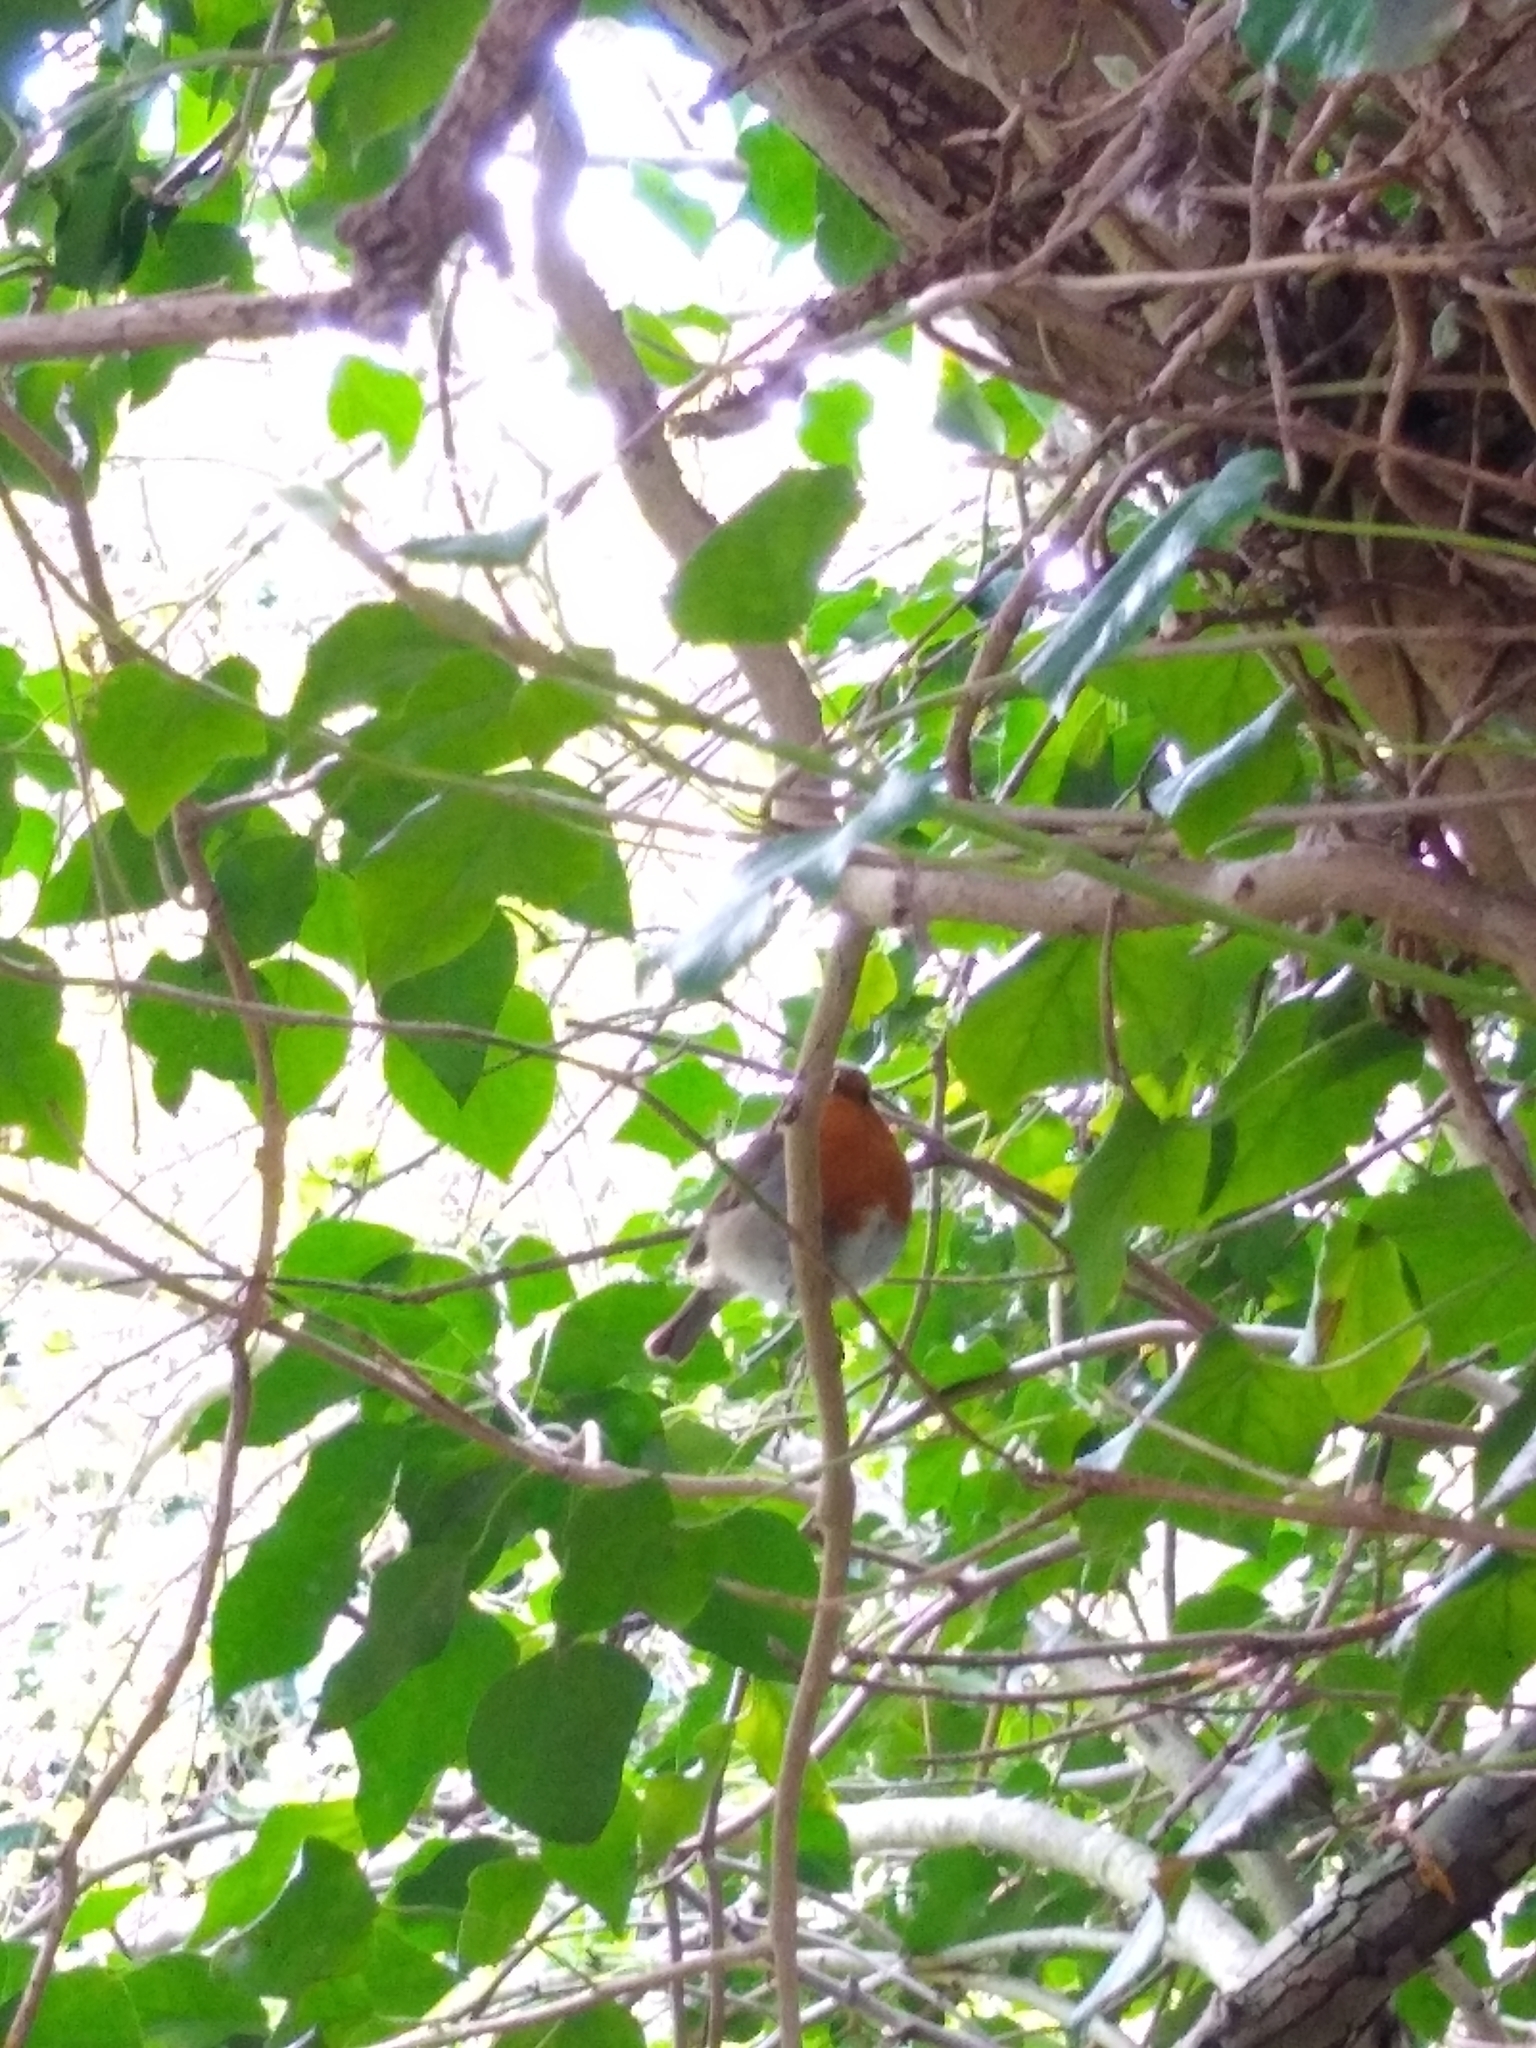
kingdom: Animalia
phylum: Chordata
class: Aves
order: Passeriformes
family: Muscicapidae
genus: Erithacus
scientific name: Erithacus rubecula
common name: European robin
